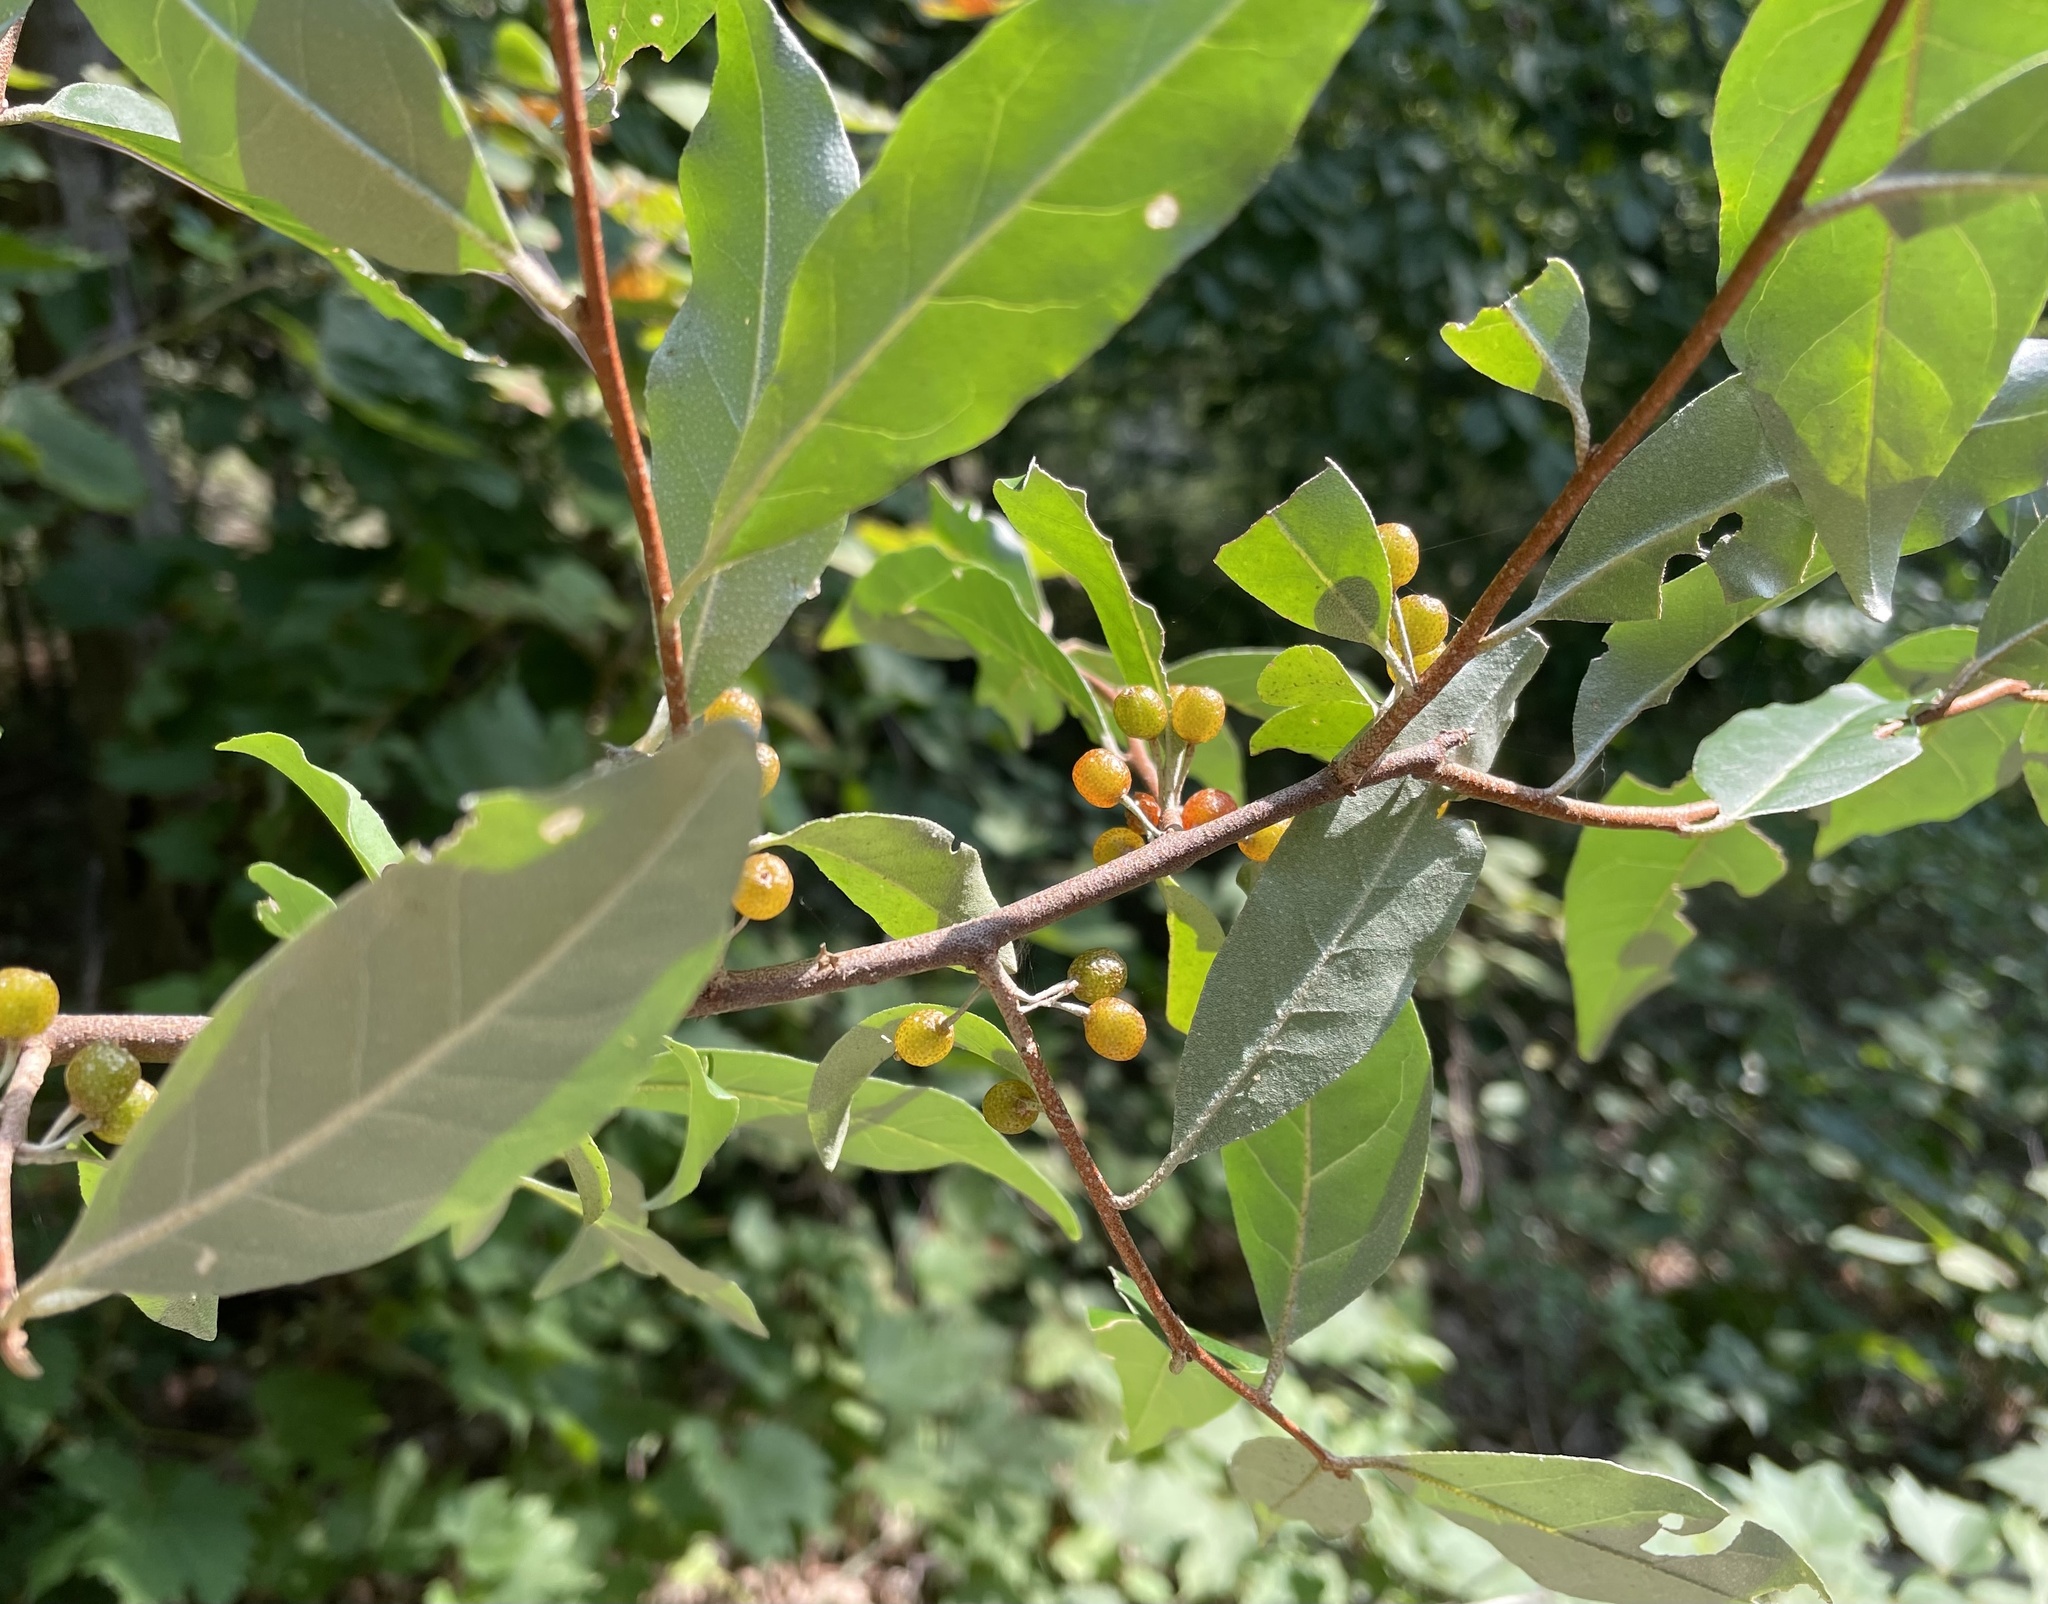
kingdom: Plantae
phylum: Tracheophyta
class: Magnoliopsida
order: Rosales
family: Elaeagnaceae
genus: Elaeagnus
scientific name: Elaeagnus umbellata
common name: Autumn olive
